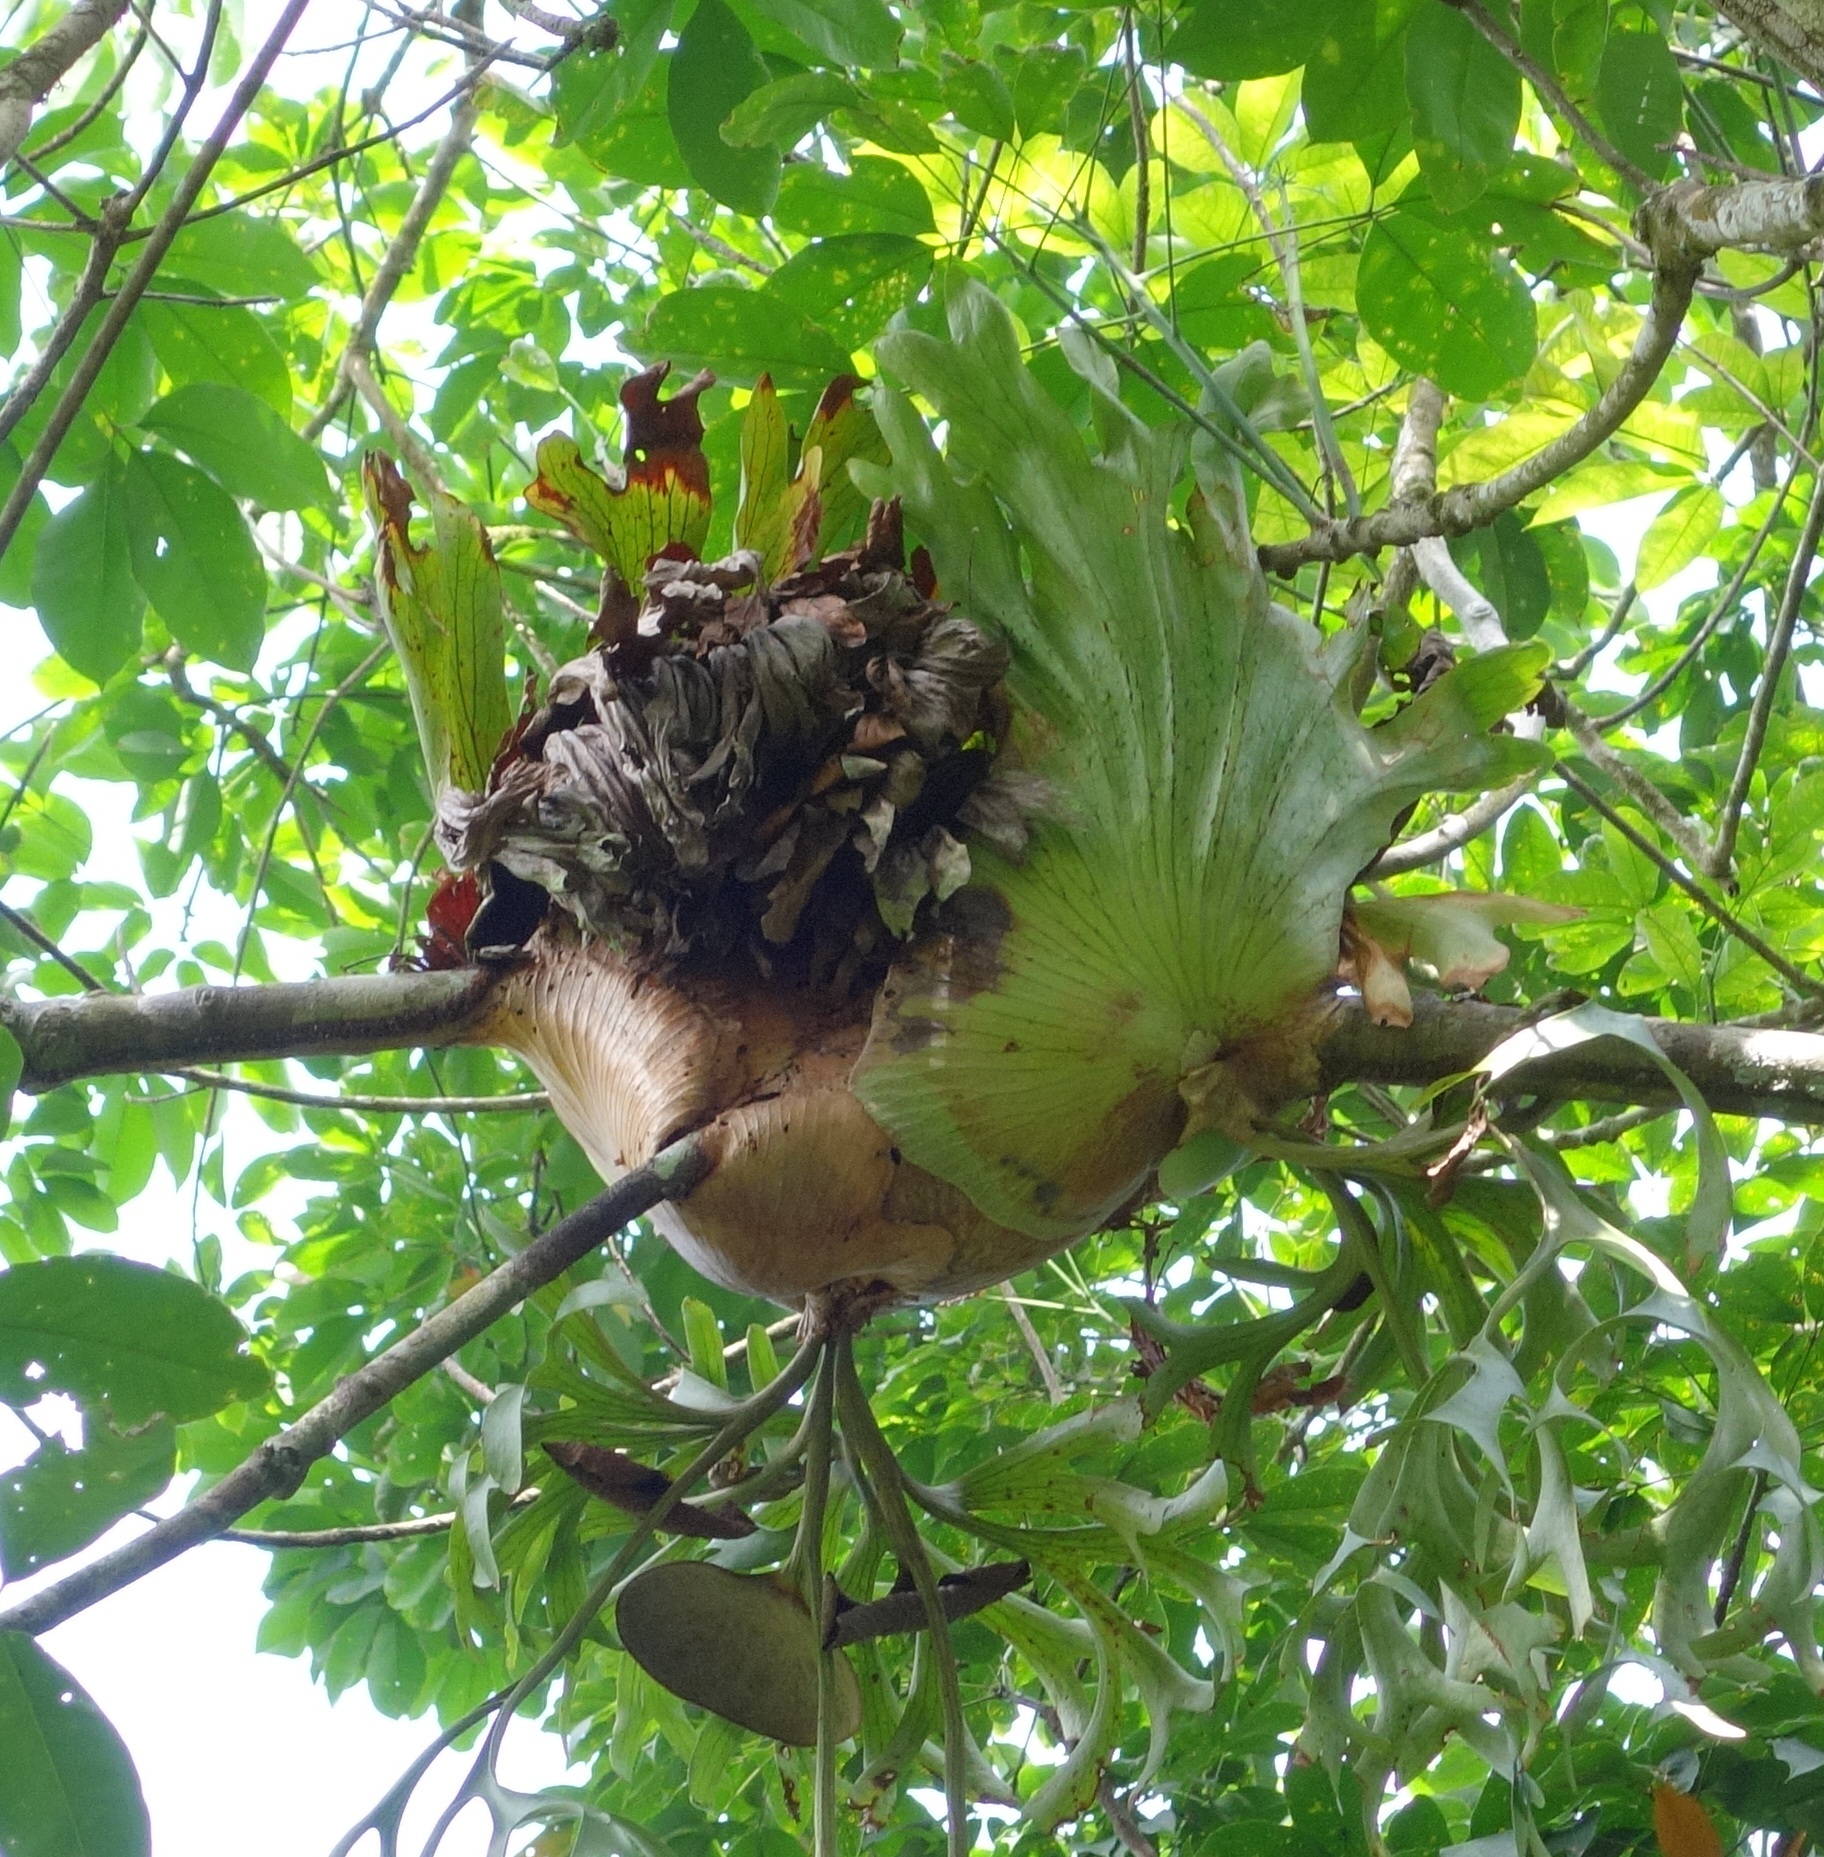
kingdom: Plantae
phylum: Tracheophyta
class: Polypodiopsida
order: Polypodiales
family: Polypodiaceae
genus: Platycerium
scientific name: Platycerium coronarium
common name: Elkhorn fern
